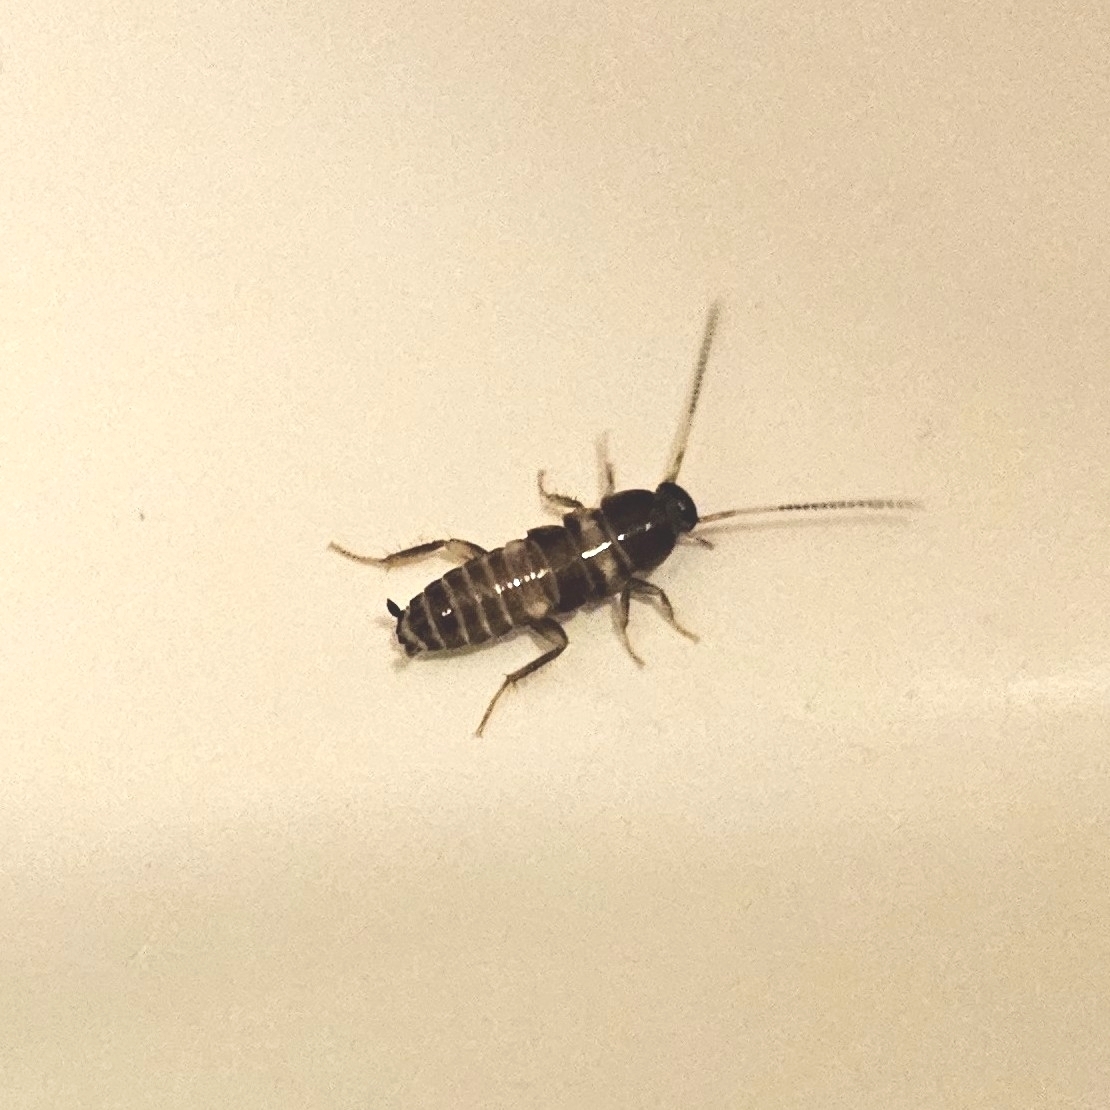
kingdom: Animalia
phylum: Arthropoda
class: Insecta
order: Blattodea
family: Blattidae
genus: Periplaneta
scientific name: Periplaneta fuliginosa
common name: Smokeybrown cockroad
